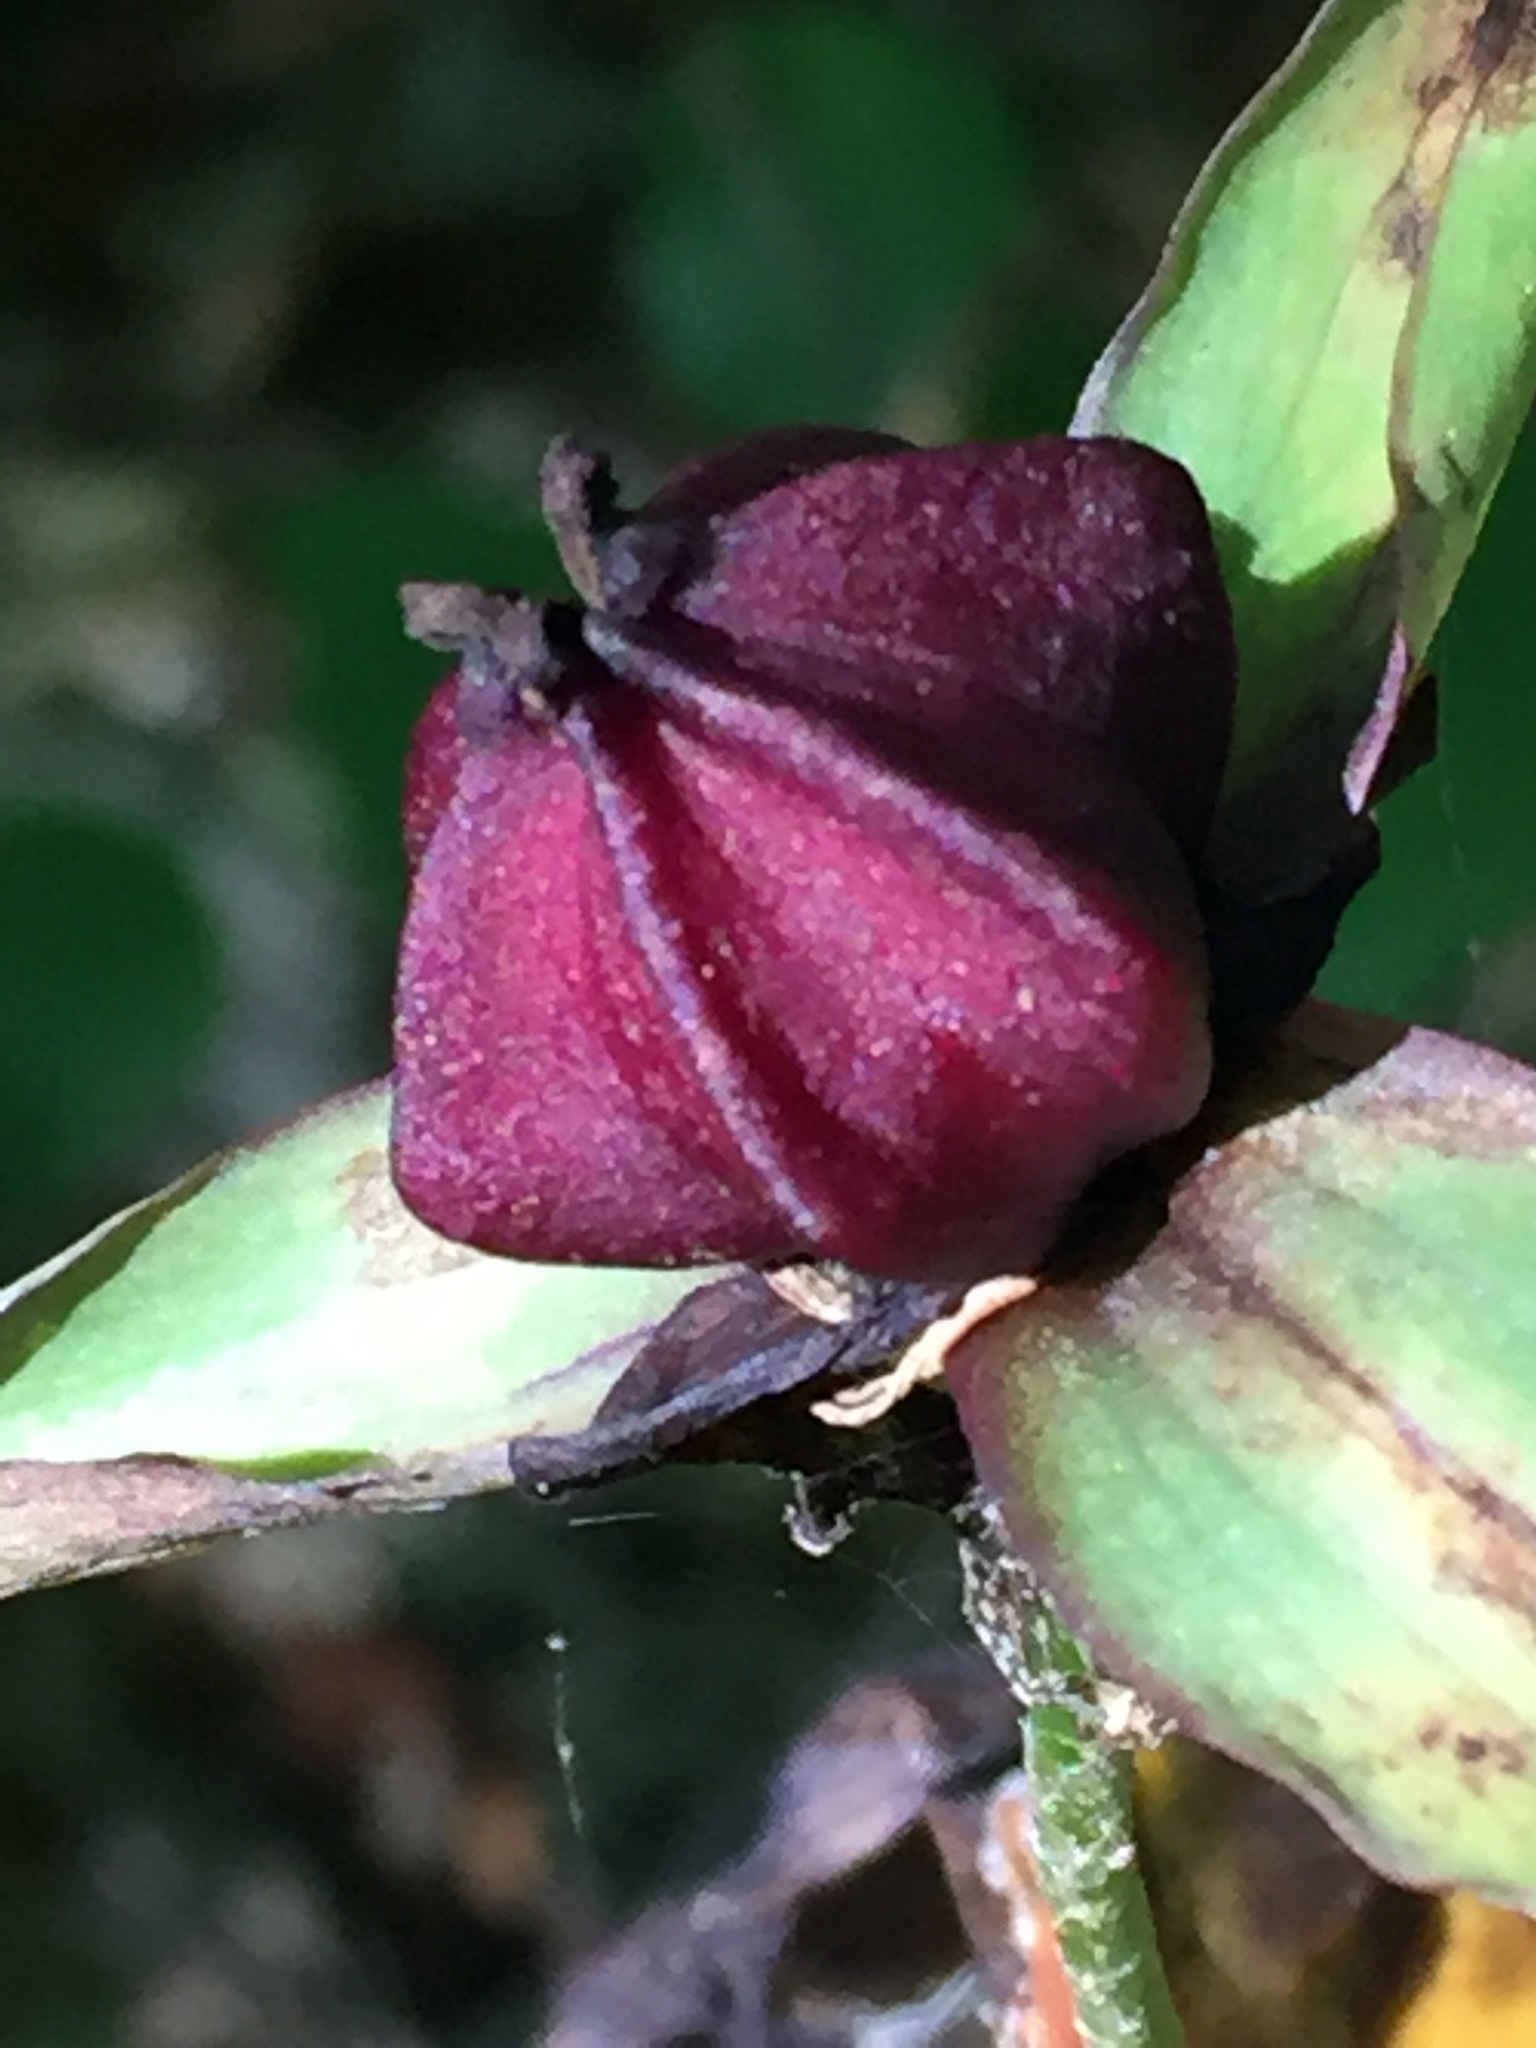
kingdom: Plantae
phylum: Tracheophyta
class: Liliopsida
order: Liliales
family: Melanthiaceae
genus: Trillium
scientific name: Trillium erectum
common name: Purple trillium
